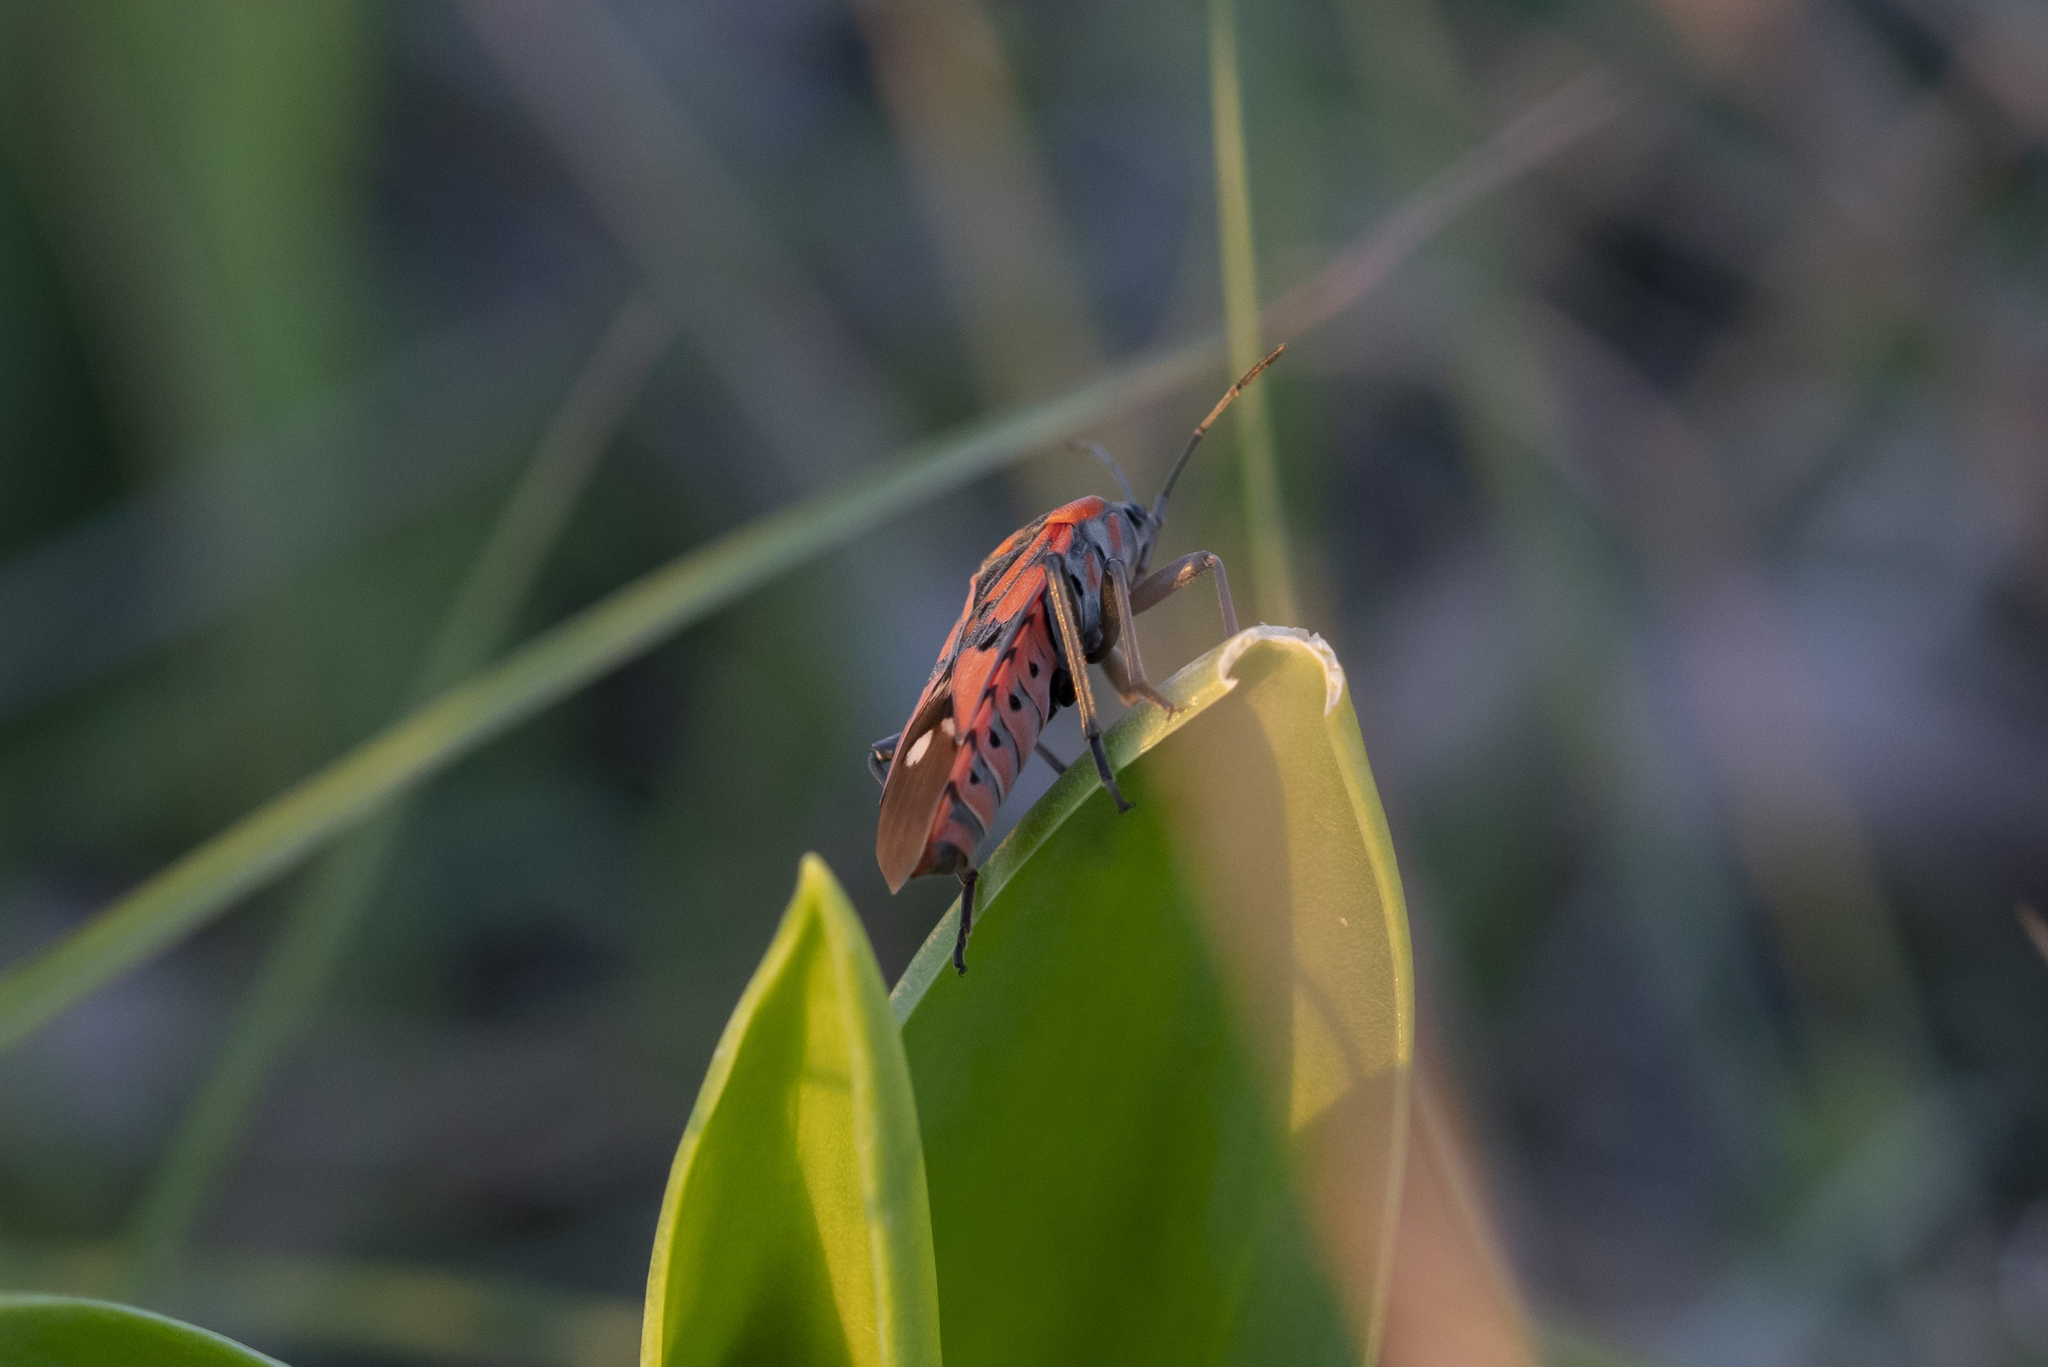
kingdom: Animalia
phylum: Arthropoda
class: Insecta
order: Hemiptera
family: Lygaeidae
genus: Spilostethus
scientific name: Spilostethus pandurus
